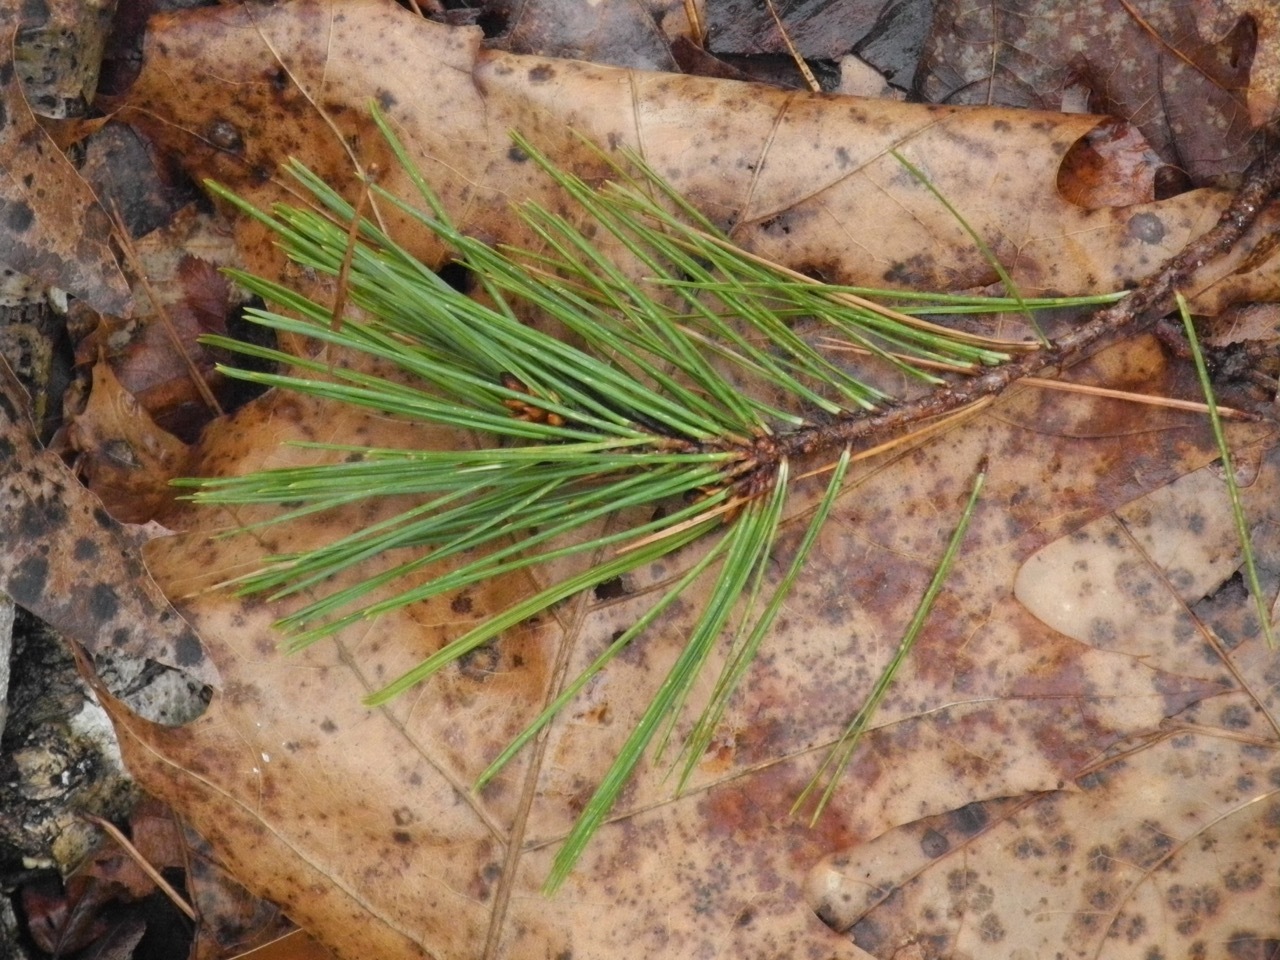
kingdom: Plantae
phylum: Tracheophyta
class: Pinopsida
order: Pinales
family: Pinaceae
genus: Pinus
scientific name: Pinus echinata
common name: Shortleaf pine
